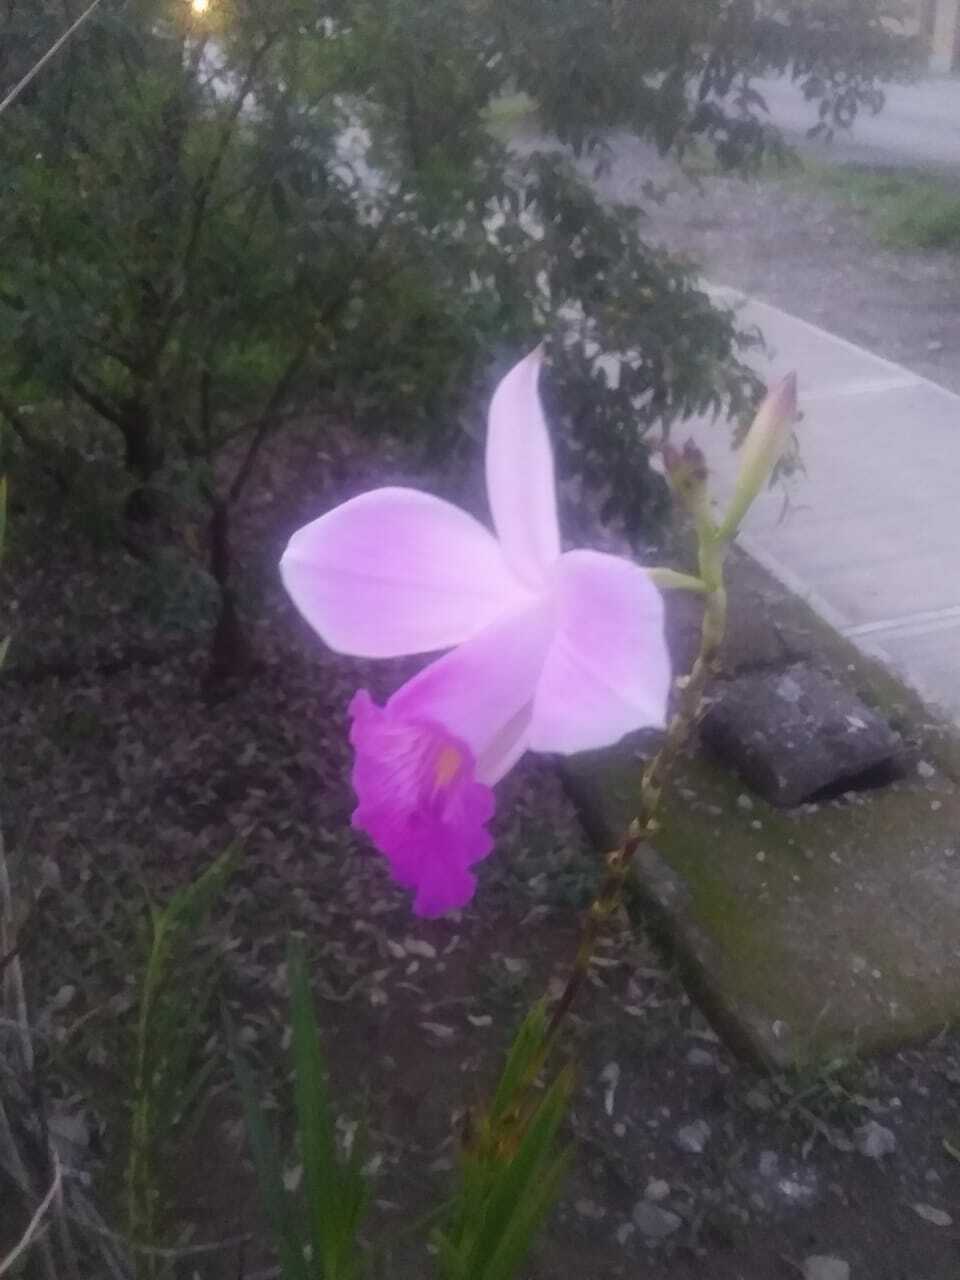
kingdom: Plantae
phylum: Tracheophyta
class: Liliopsida
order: Asparagales
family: Orchidaceae
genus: Arundina
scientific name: Arundina graminifolia
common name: Bamboo orchid
